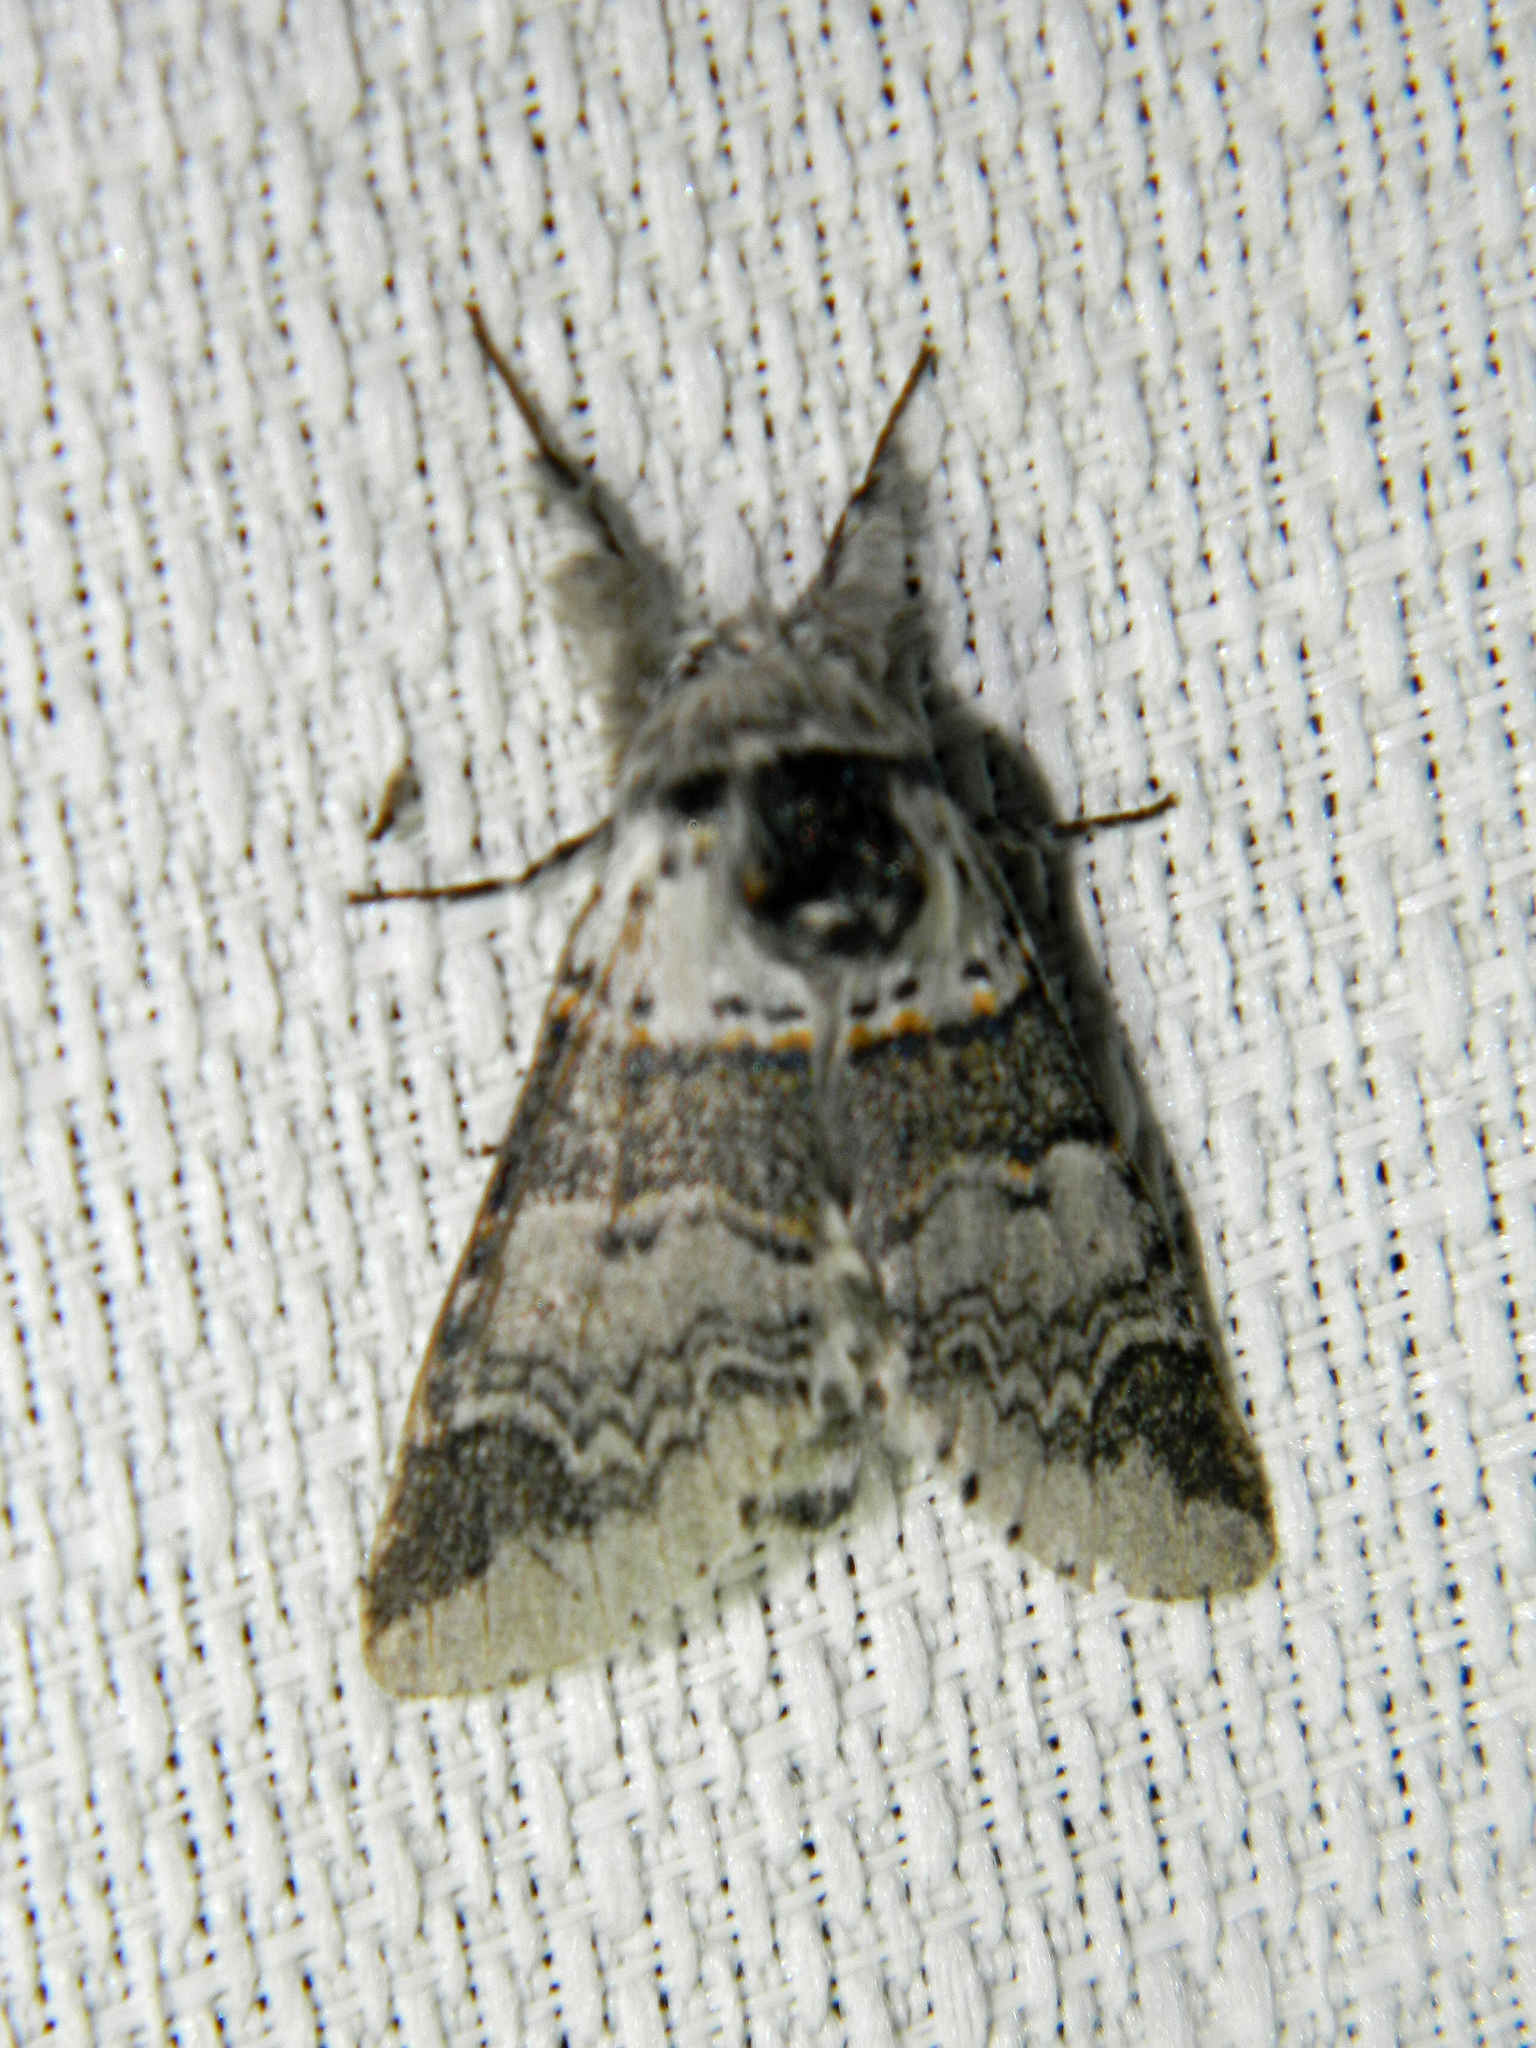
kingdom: Animalia
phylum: Arthropoda
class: Insecta
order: Lepidoptera
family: Notodontidae
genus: Furcula
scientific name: Furcula occidentalis
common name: Western furcula moth
